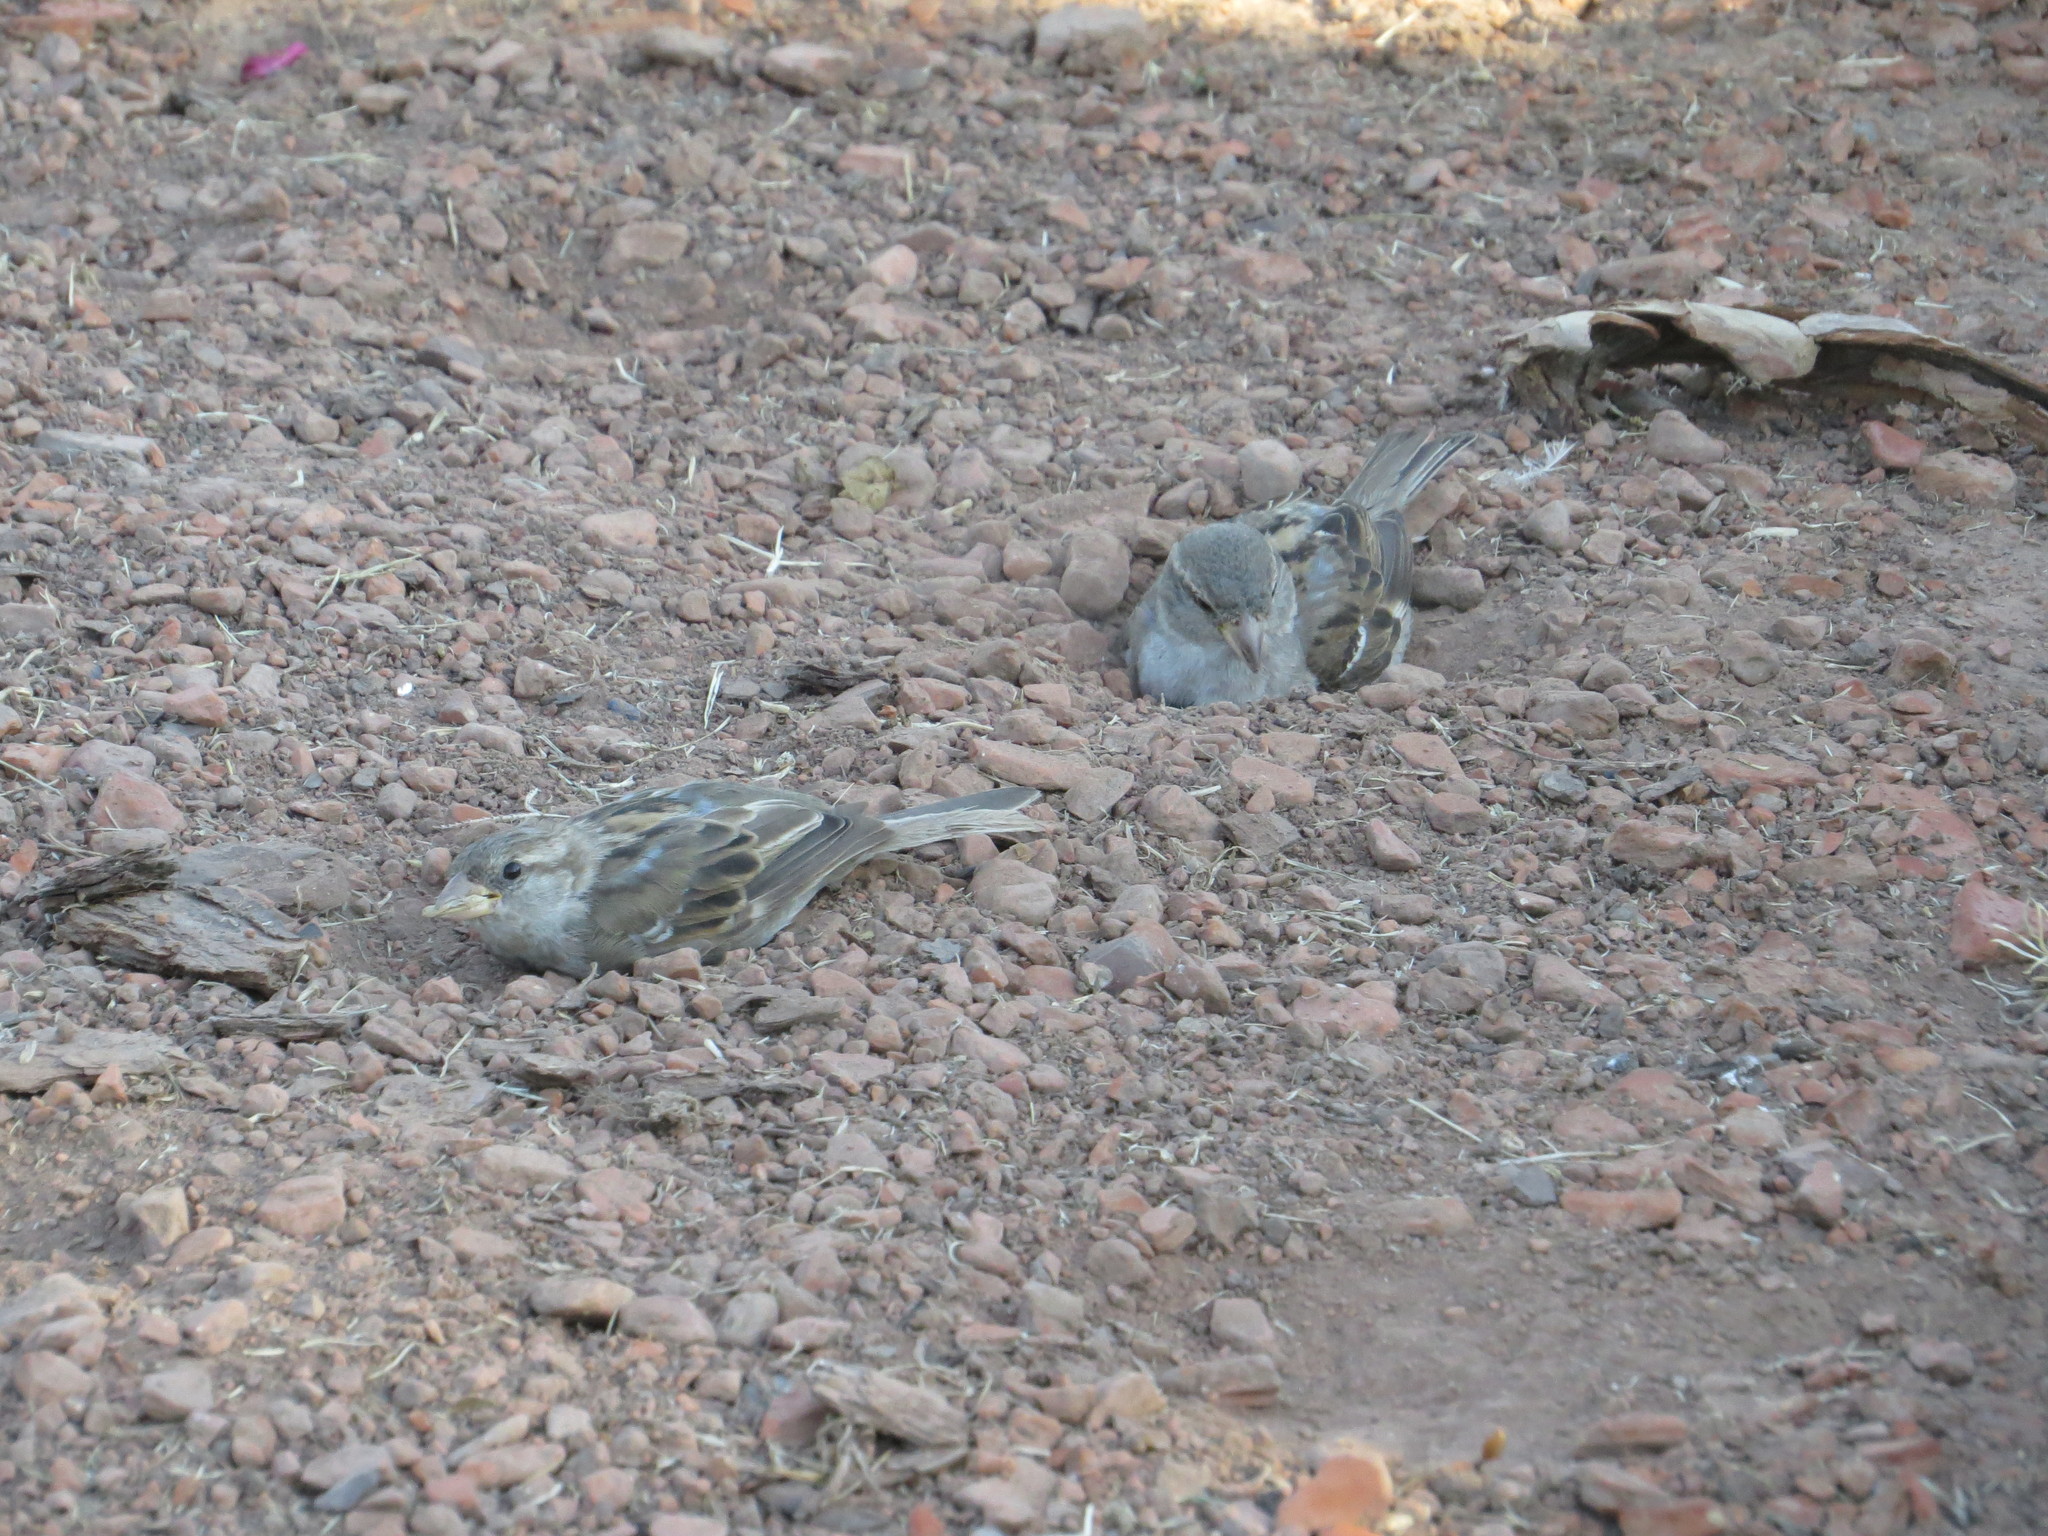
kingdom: Animalia
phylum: Chordata
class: Aves
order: Passeriformes
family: Passeridae
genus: Passer
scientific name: Passer domesticus
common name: House sparrow
